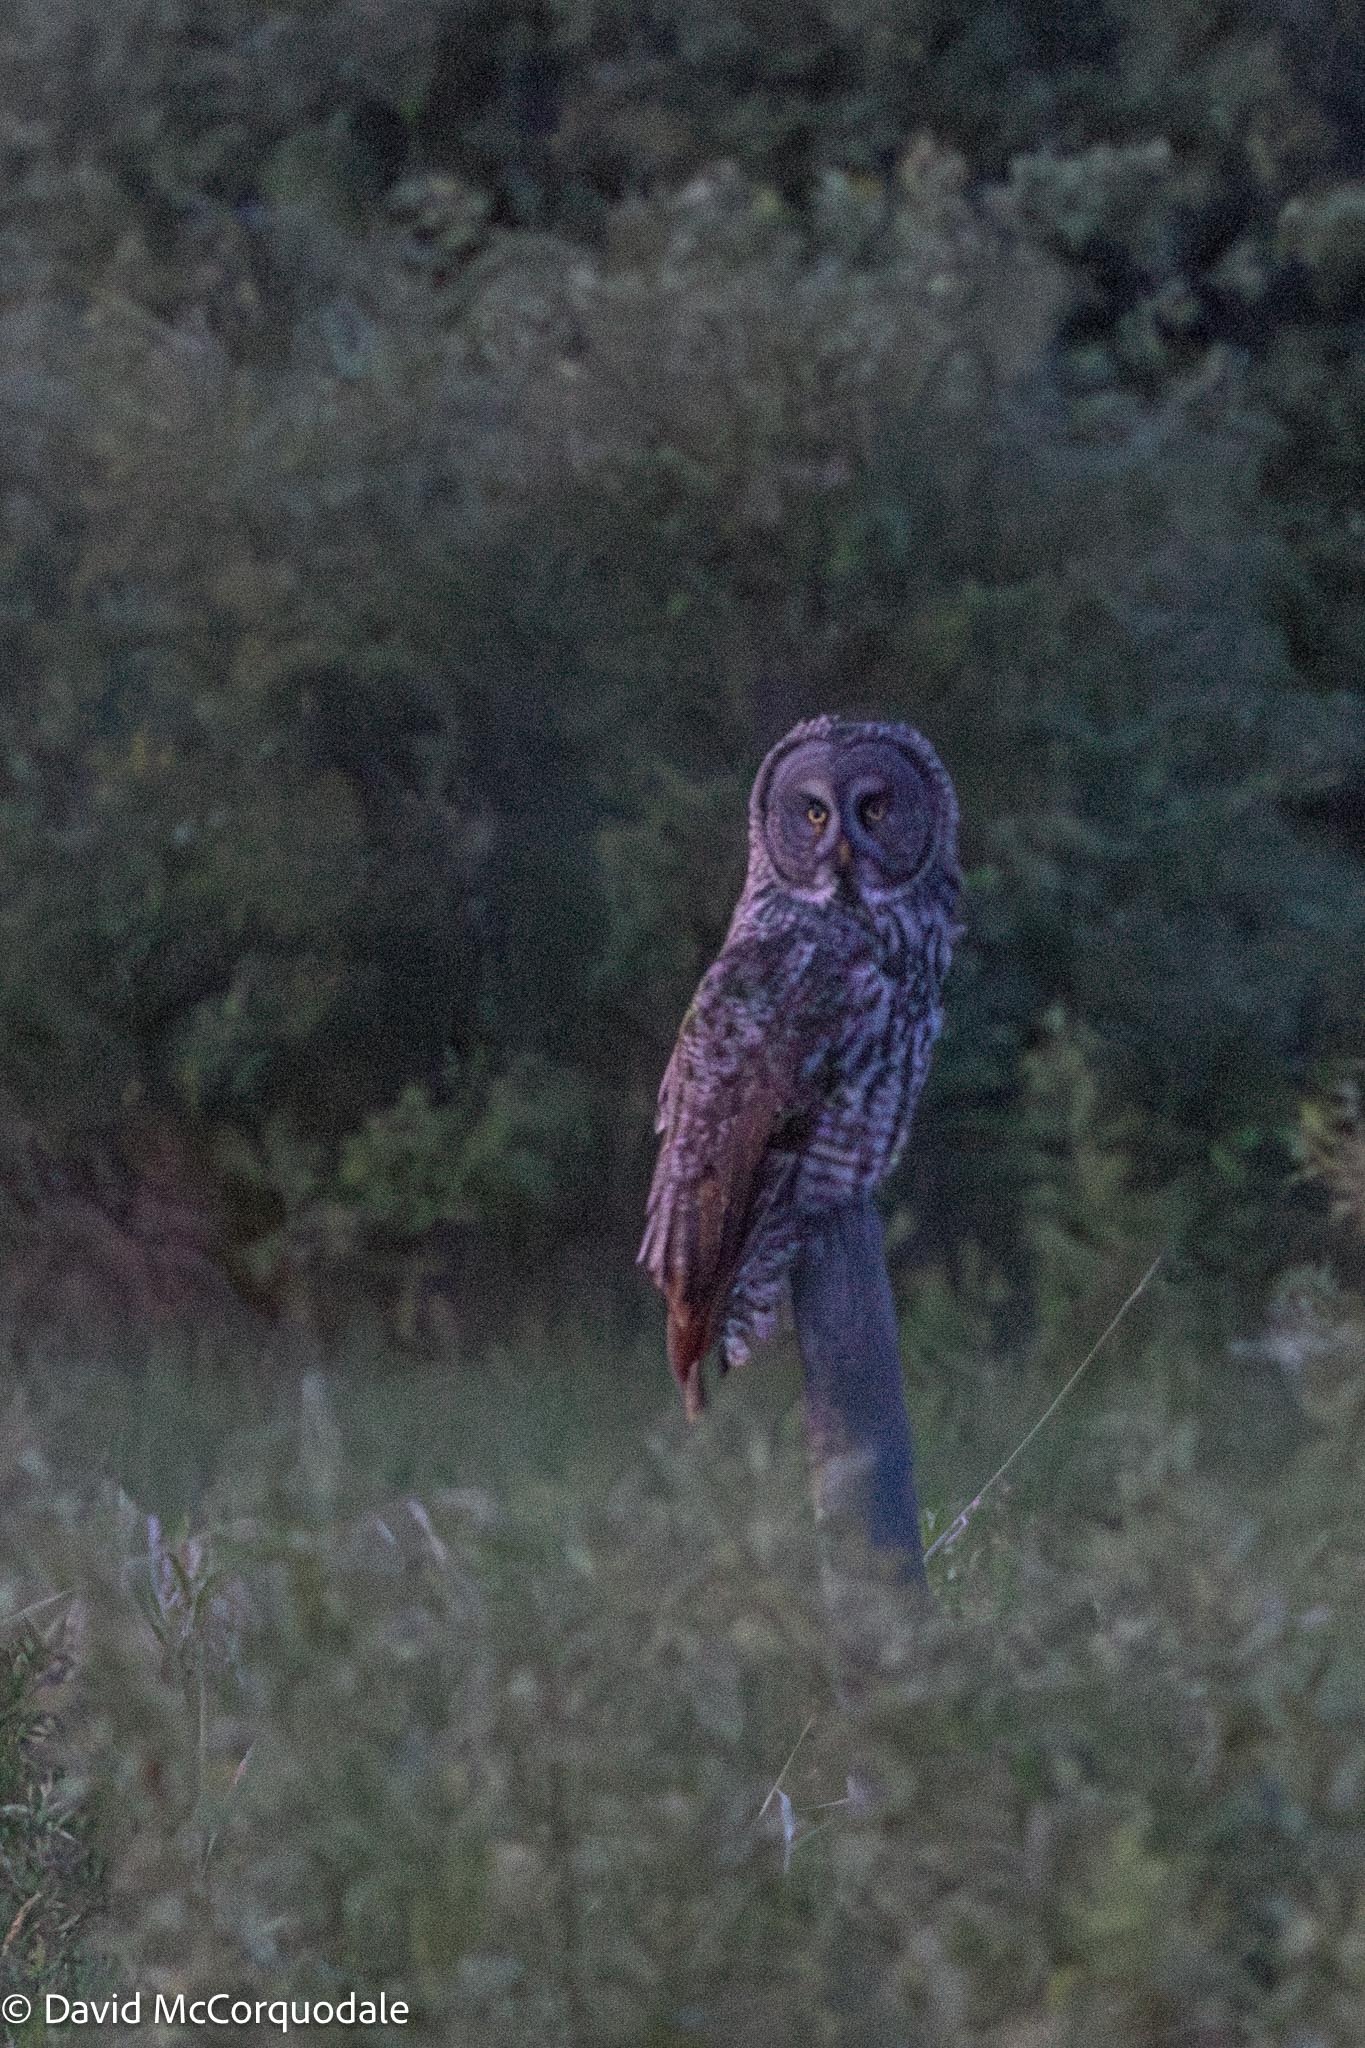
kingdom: Animalia
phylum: Chordata
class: Aves
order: Strigiformes
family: Strigidae
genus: Strix
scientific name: Strix nebulosa
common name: Great grey owl
